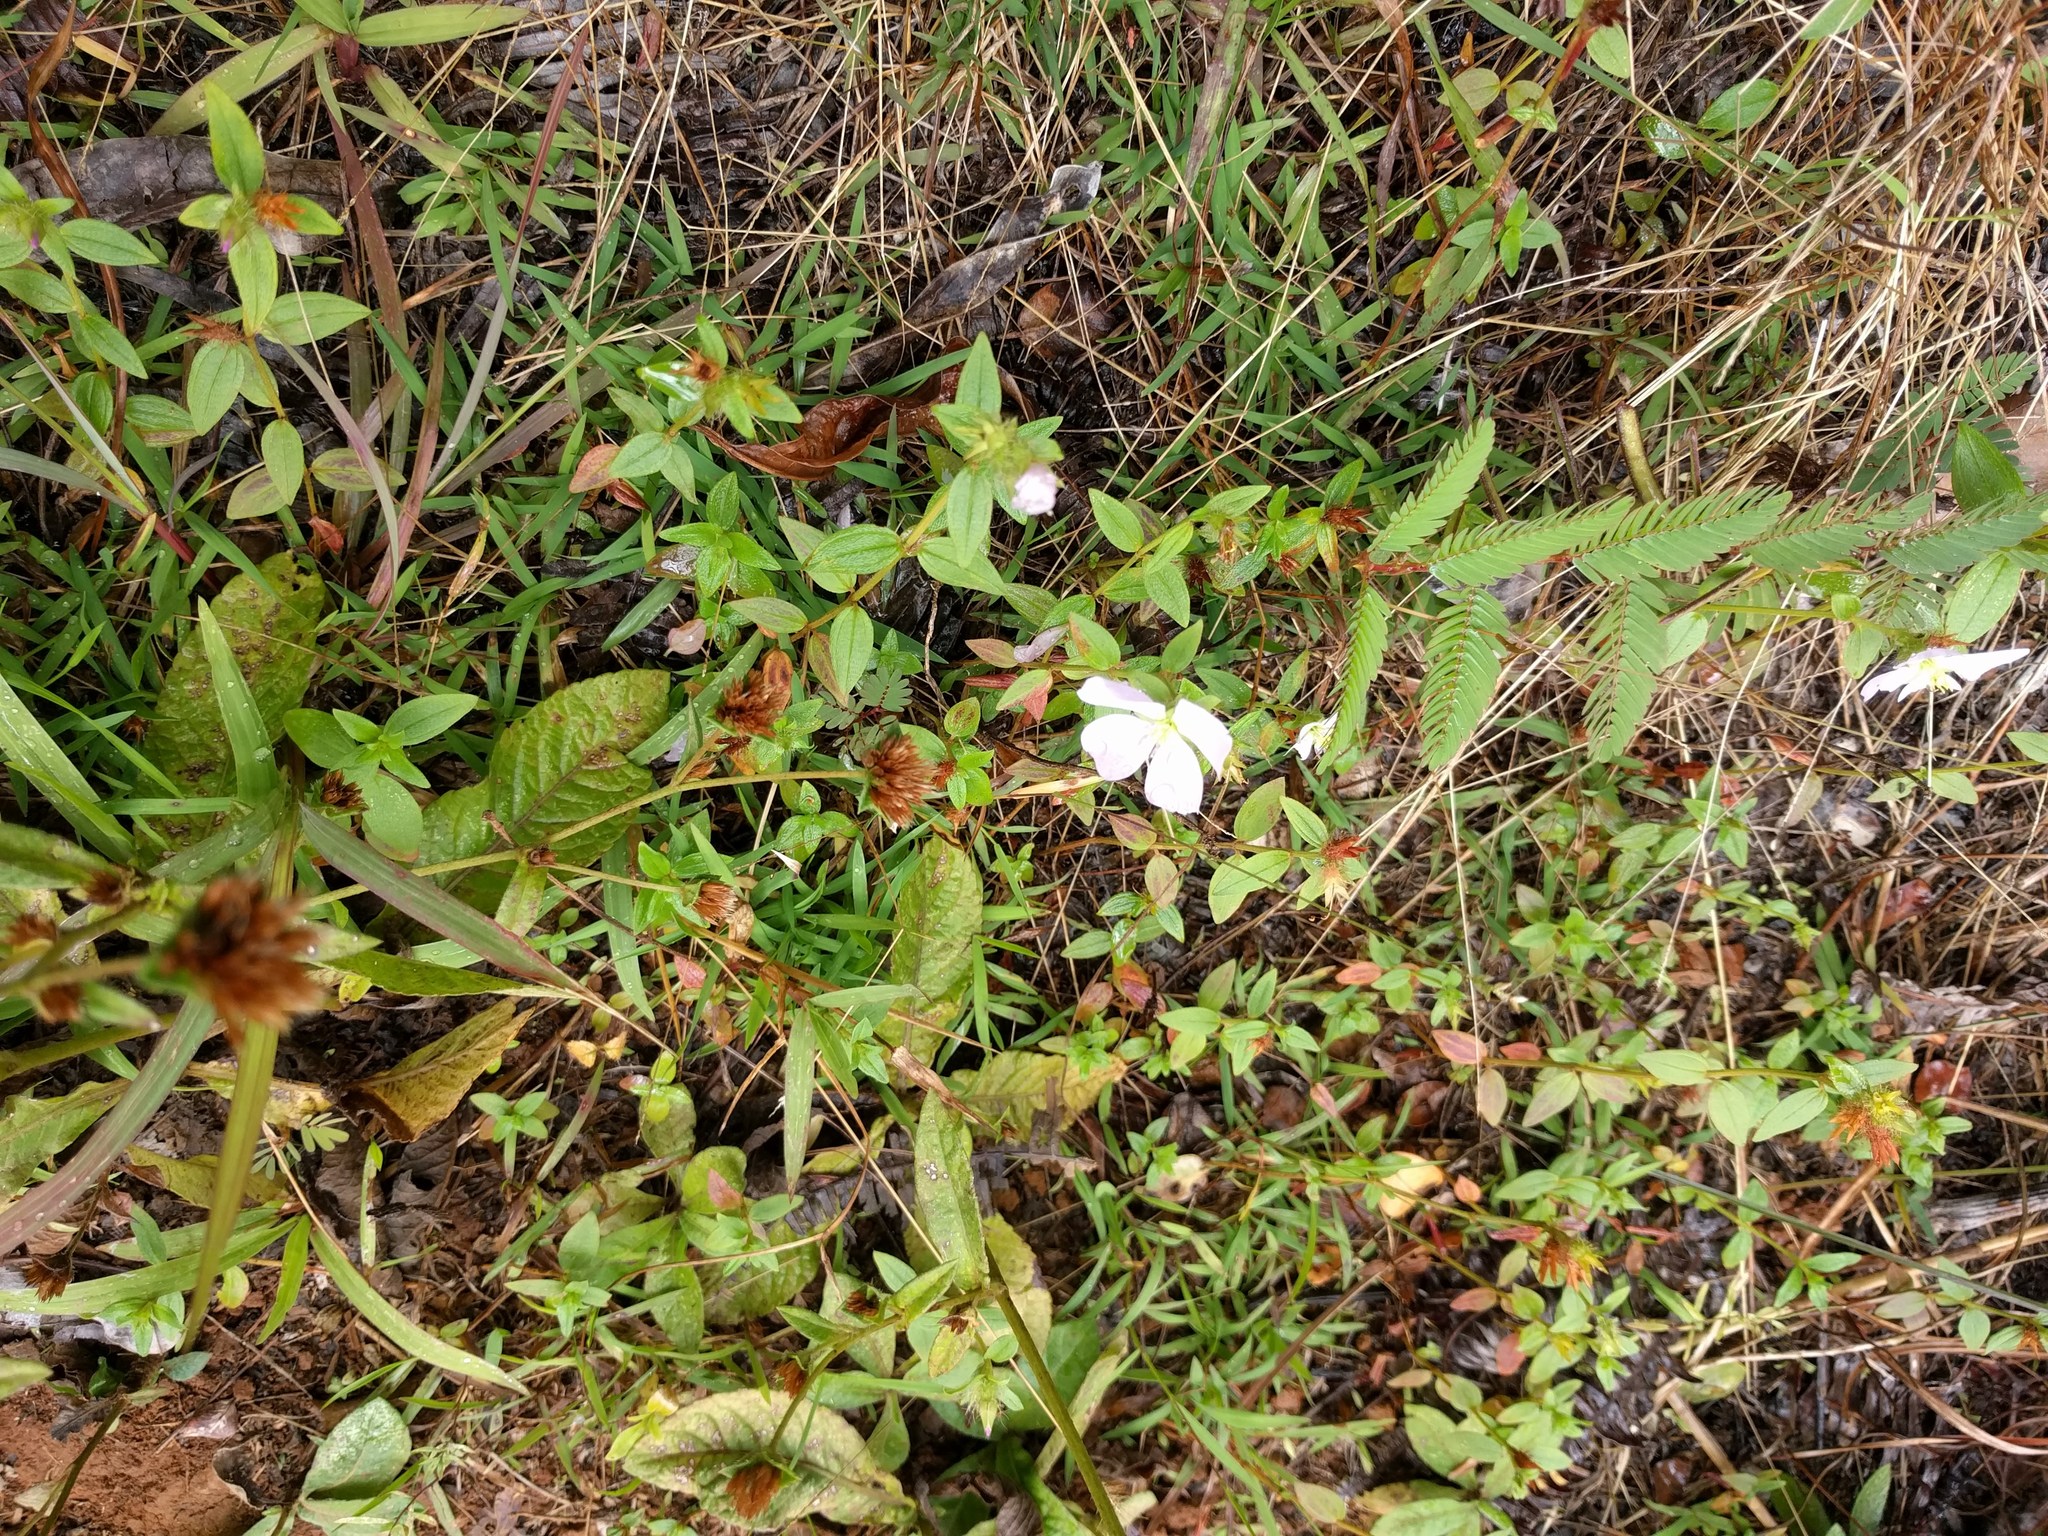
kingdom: Plantae
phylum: Tracheophyta
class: Magnoliopsida
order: Fabales
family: Fabaceae
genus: Chamaecrista
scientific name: Chamaecrista nictitans
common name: Sensitive cassia
